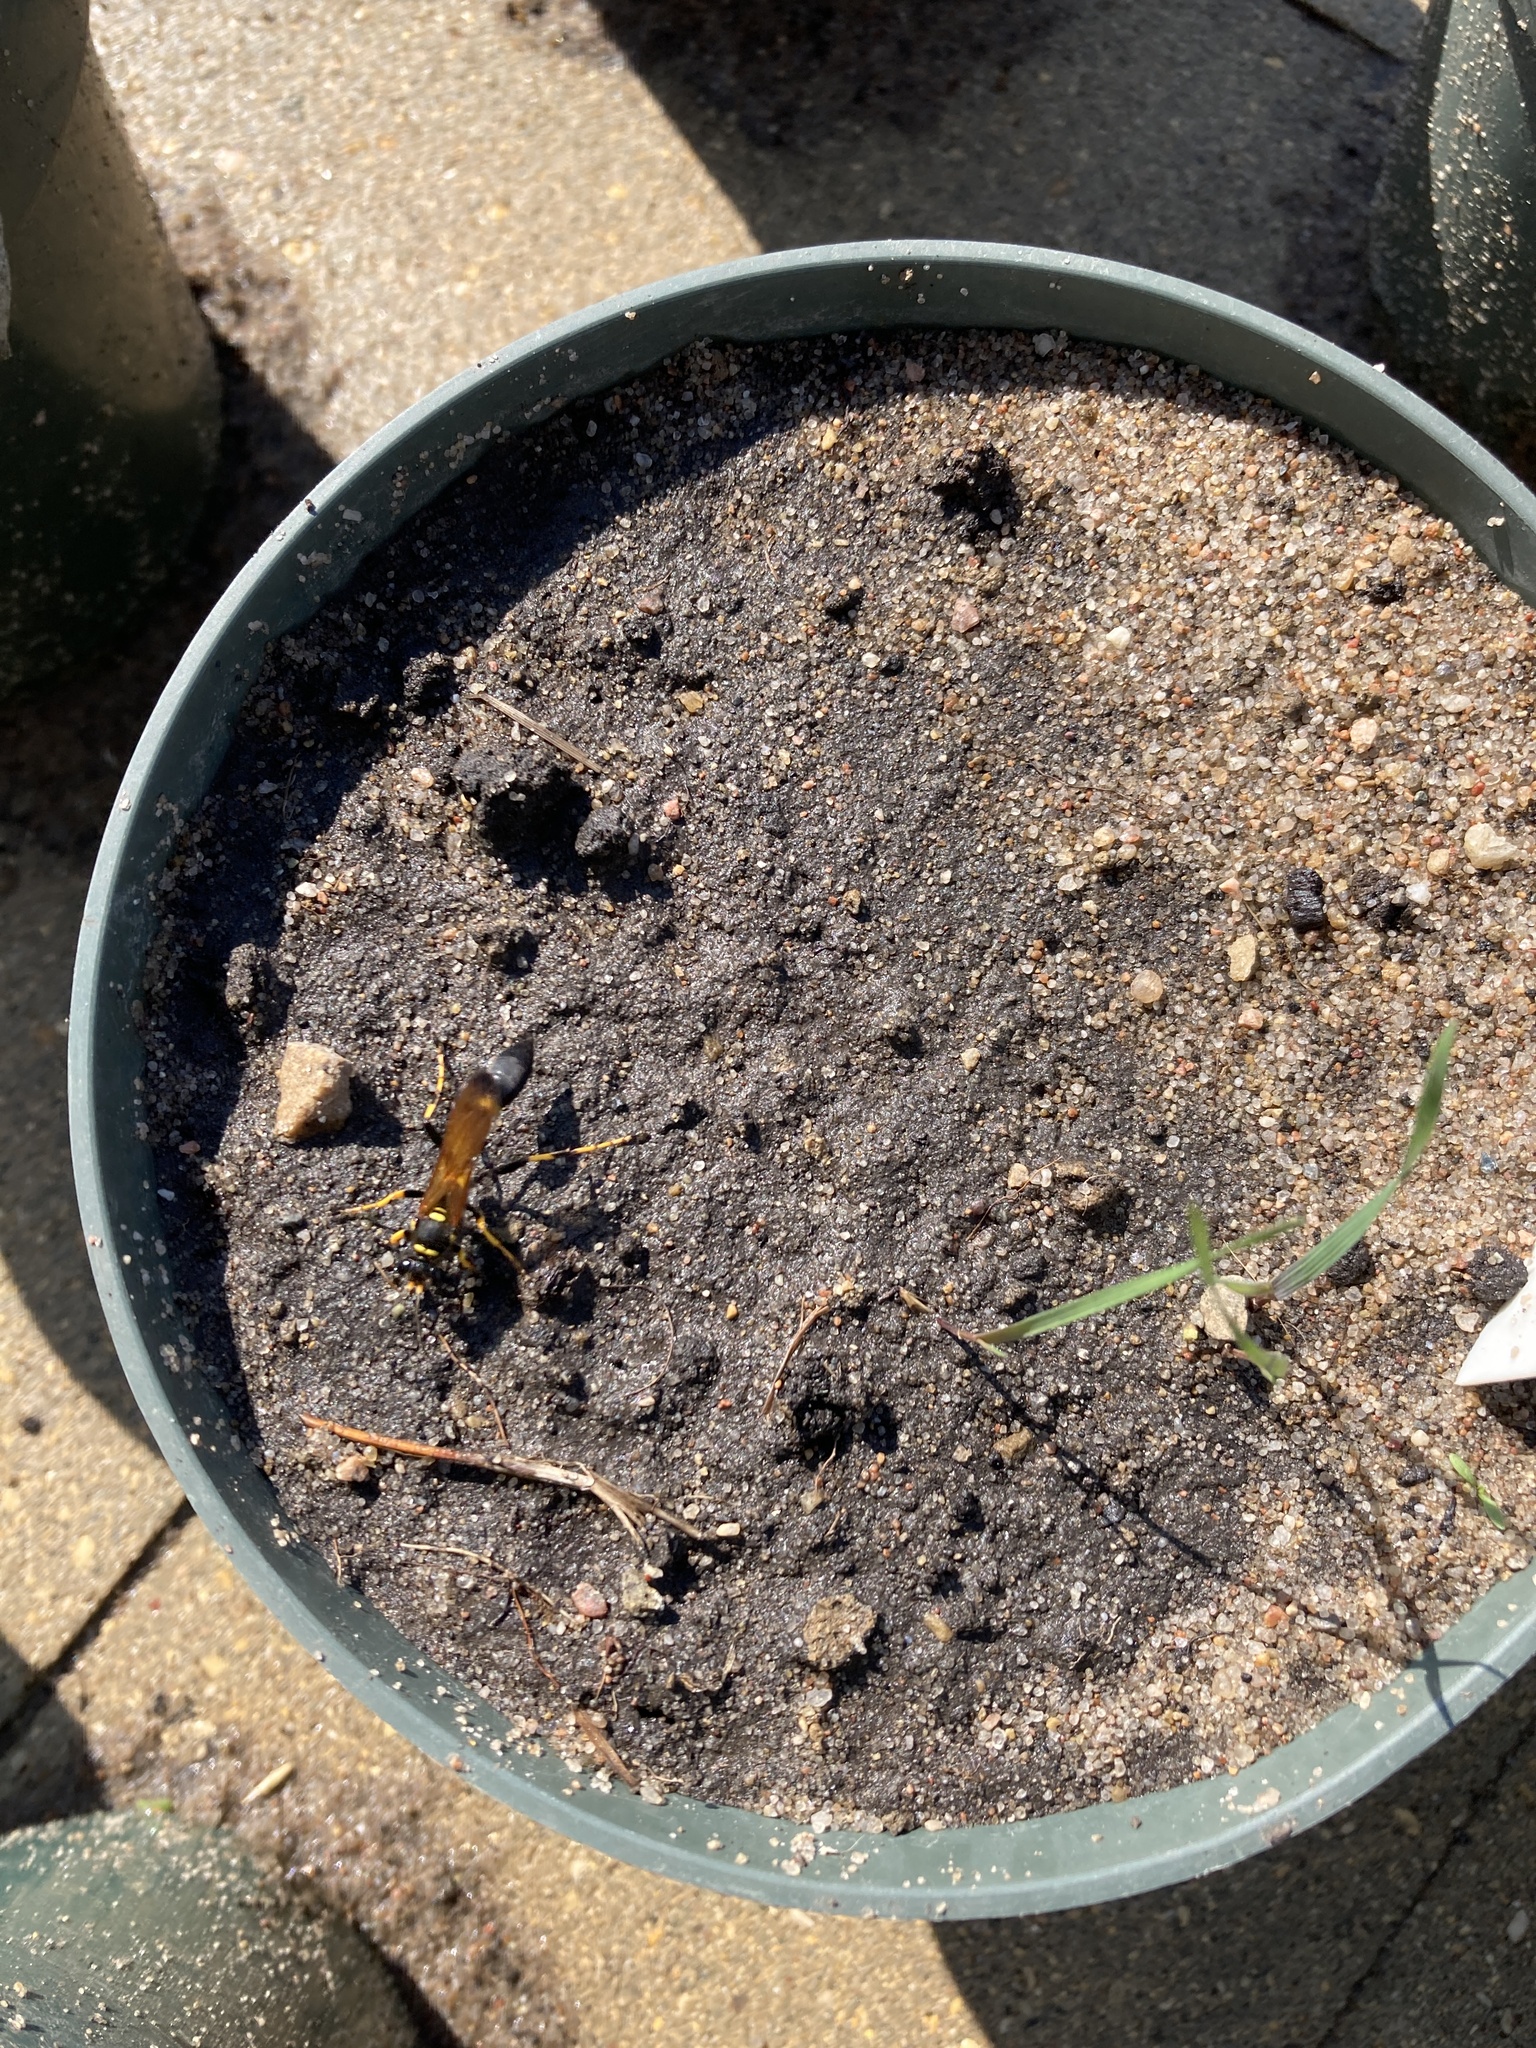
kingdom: Animalia
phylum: Arthropoda
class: Insecta
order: Hymenoptera
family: Sphecidae
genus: Sceliphron
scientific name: Sceliphron caementarium
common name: Mud dauber
